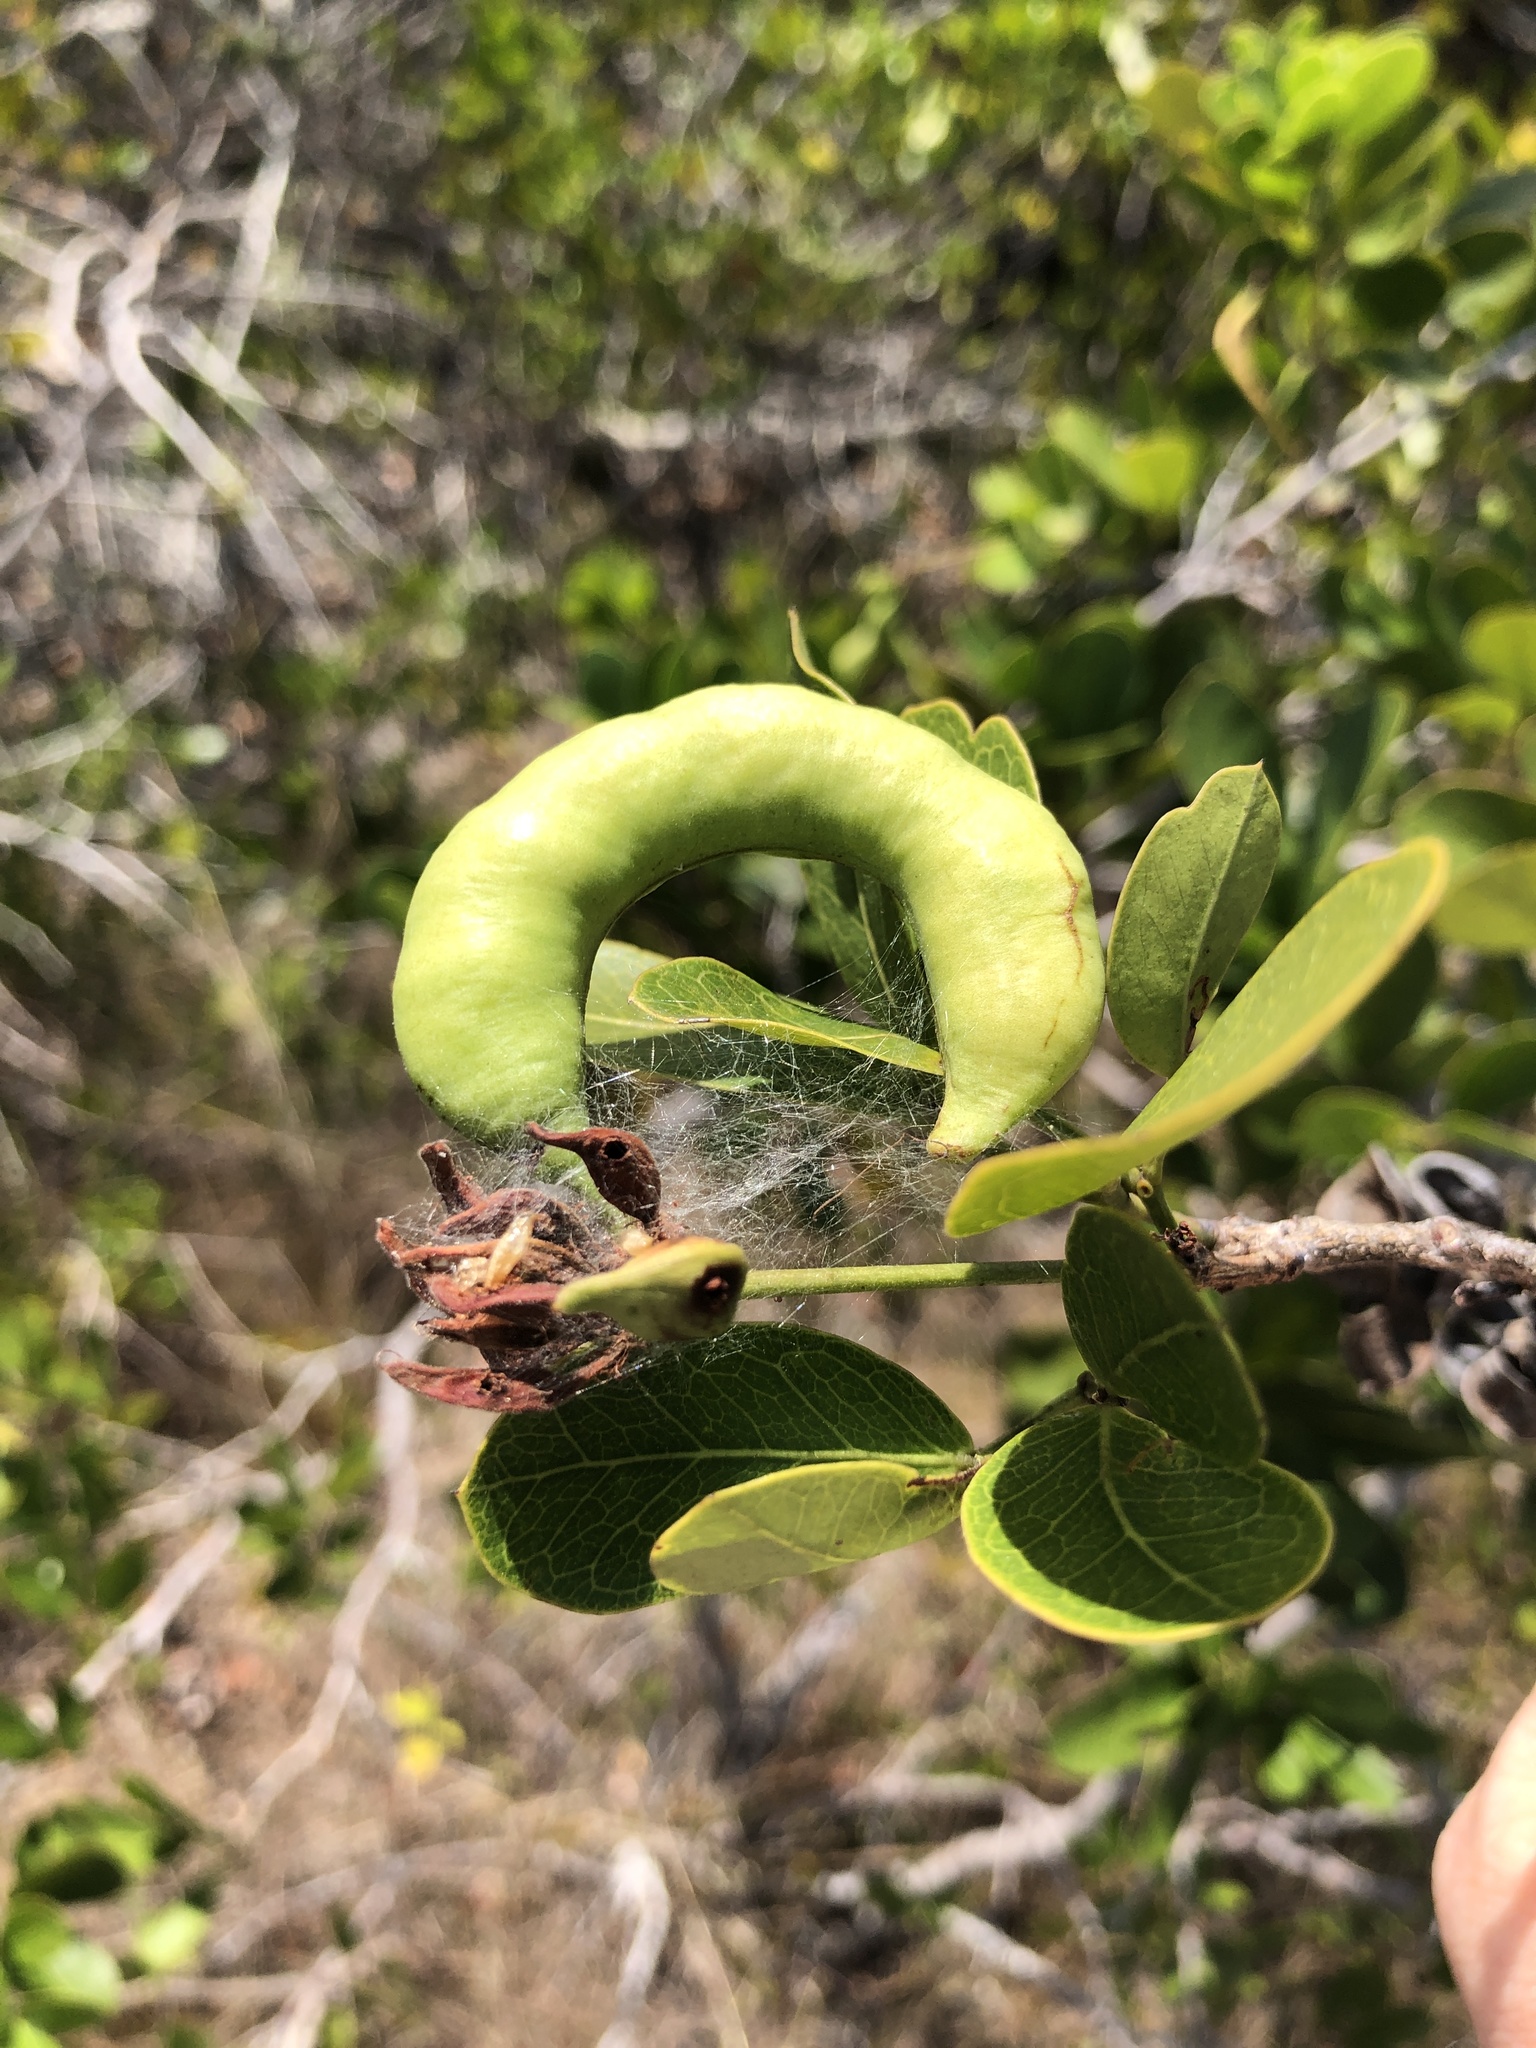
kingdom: Plantae
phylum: Tracheophyta
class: Magnoliopsida
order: Fabales
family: Fabaceae
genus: Pithecellobium
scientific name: Pithecellobium keyense
